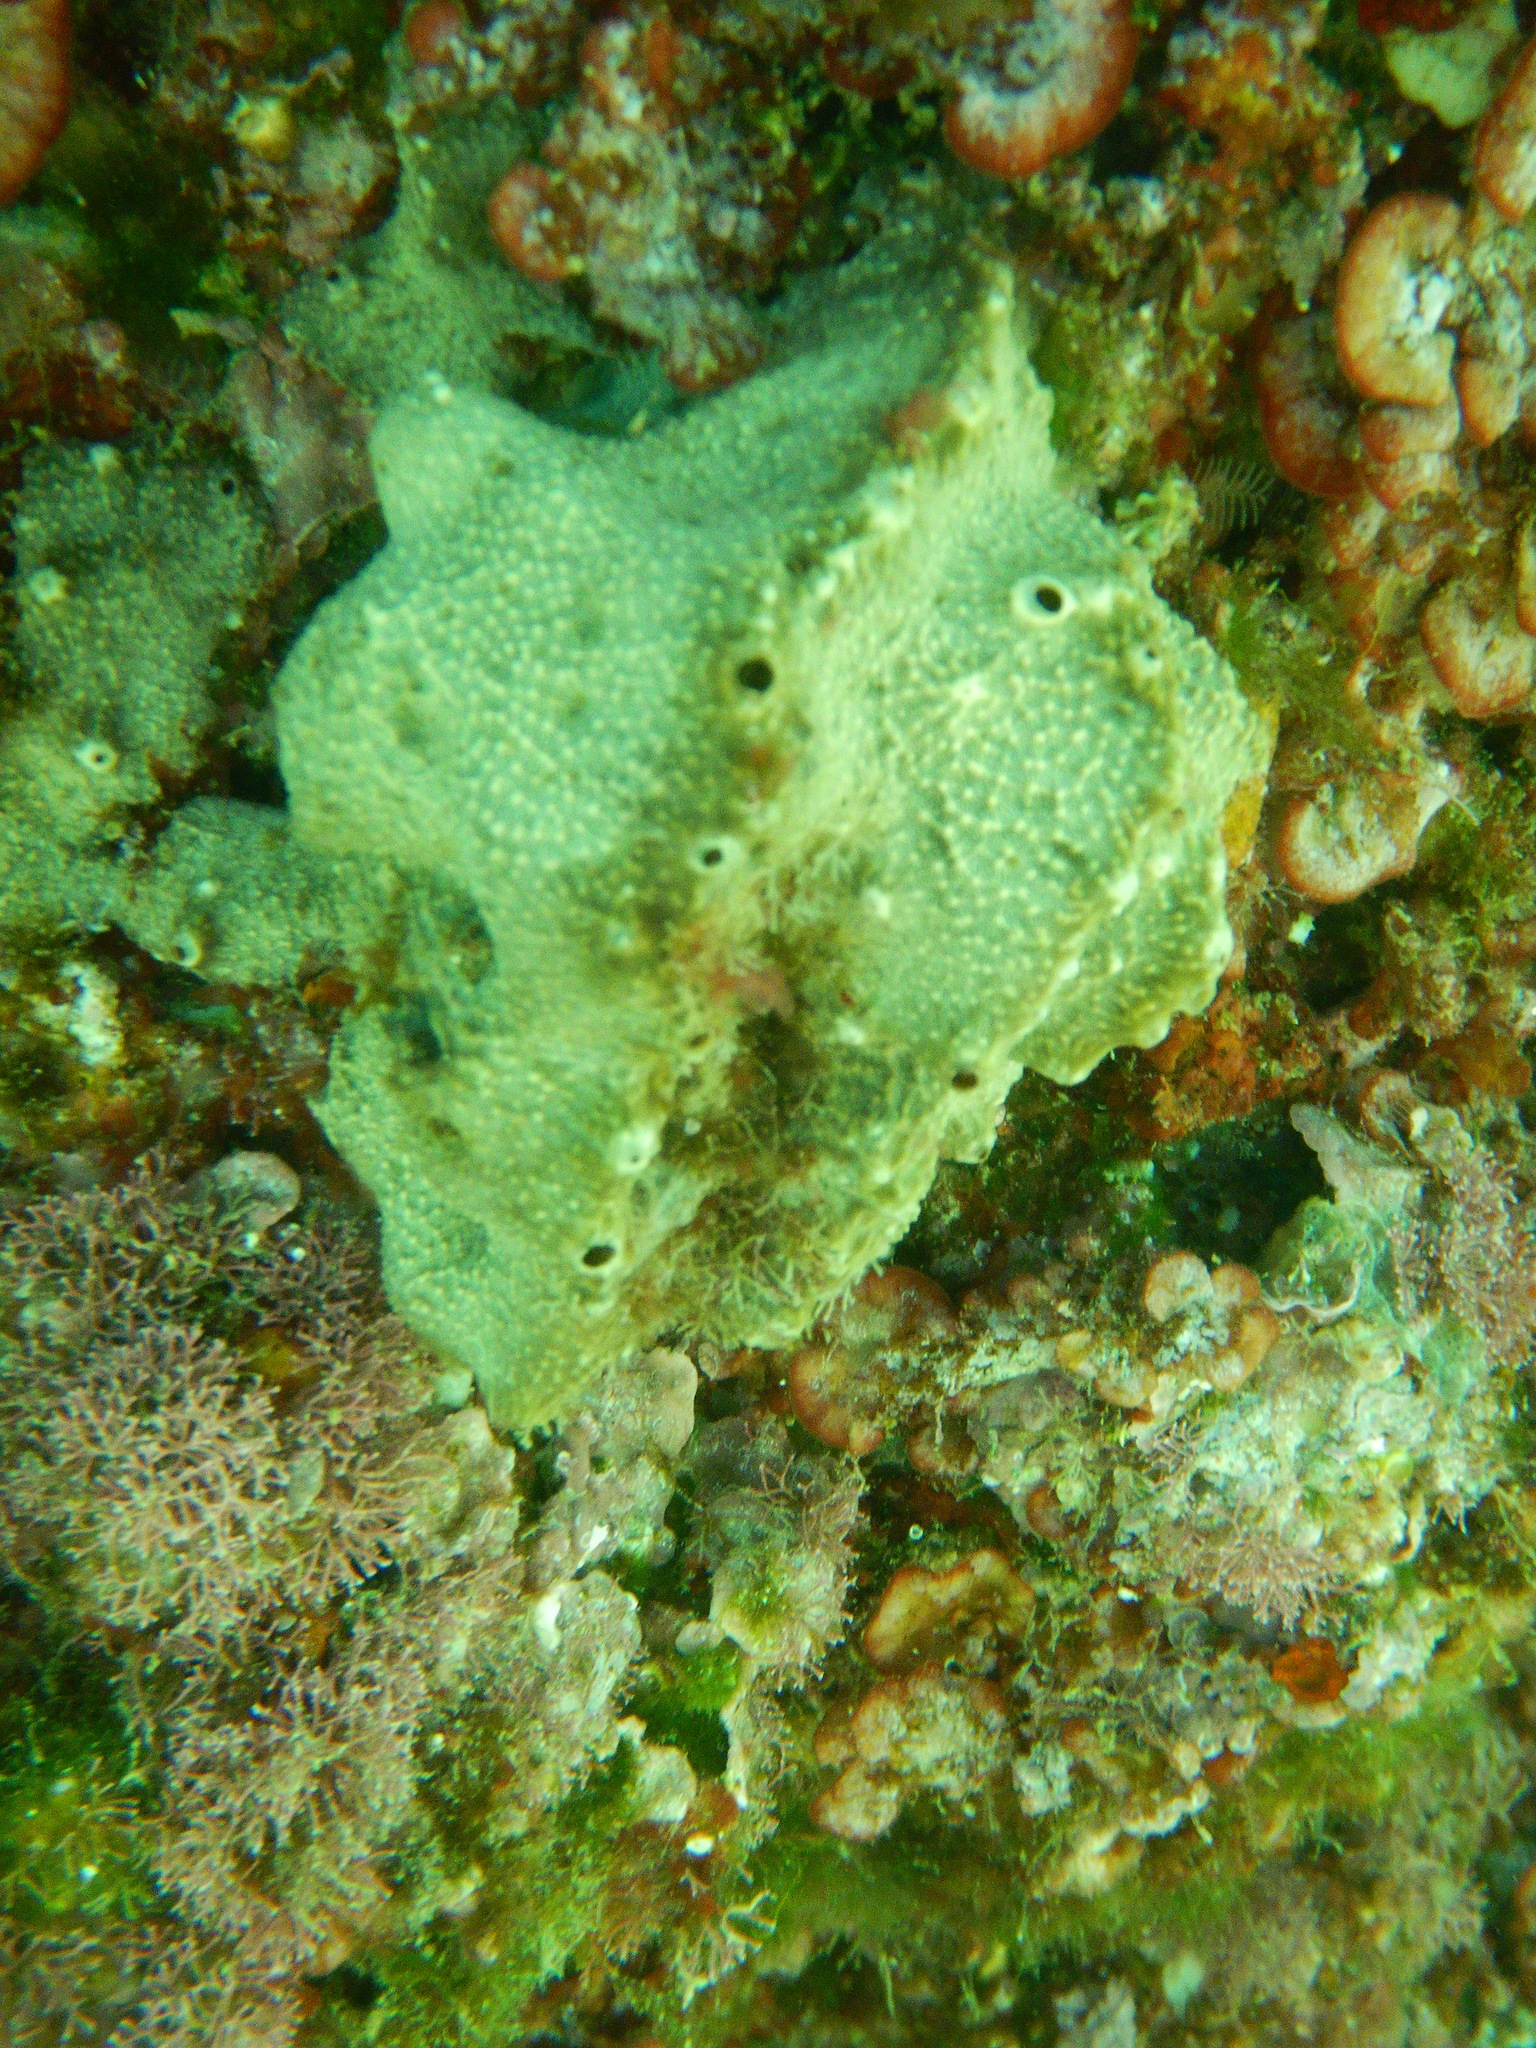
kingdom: Animalia
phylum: Porifera
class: Demospongiae
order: Dictyoceratida
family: Irciniidae
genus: Ircinia
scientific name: Ircinia variabilis
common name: Variable loggerhead sponge
